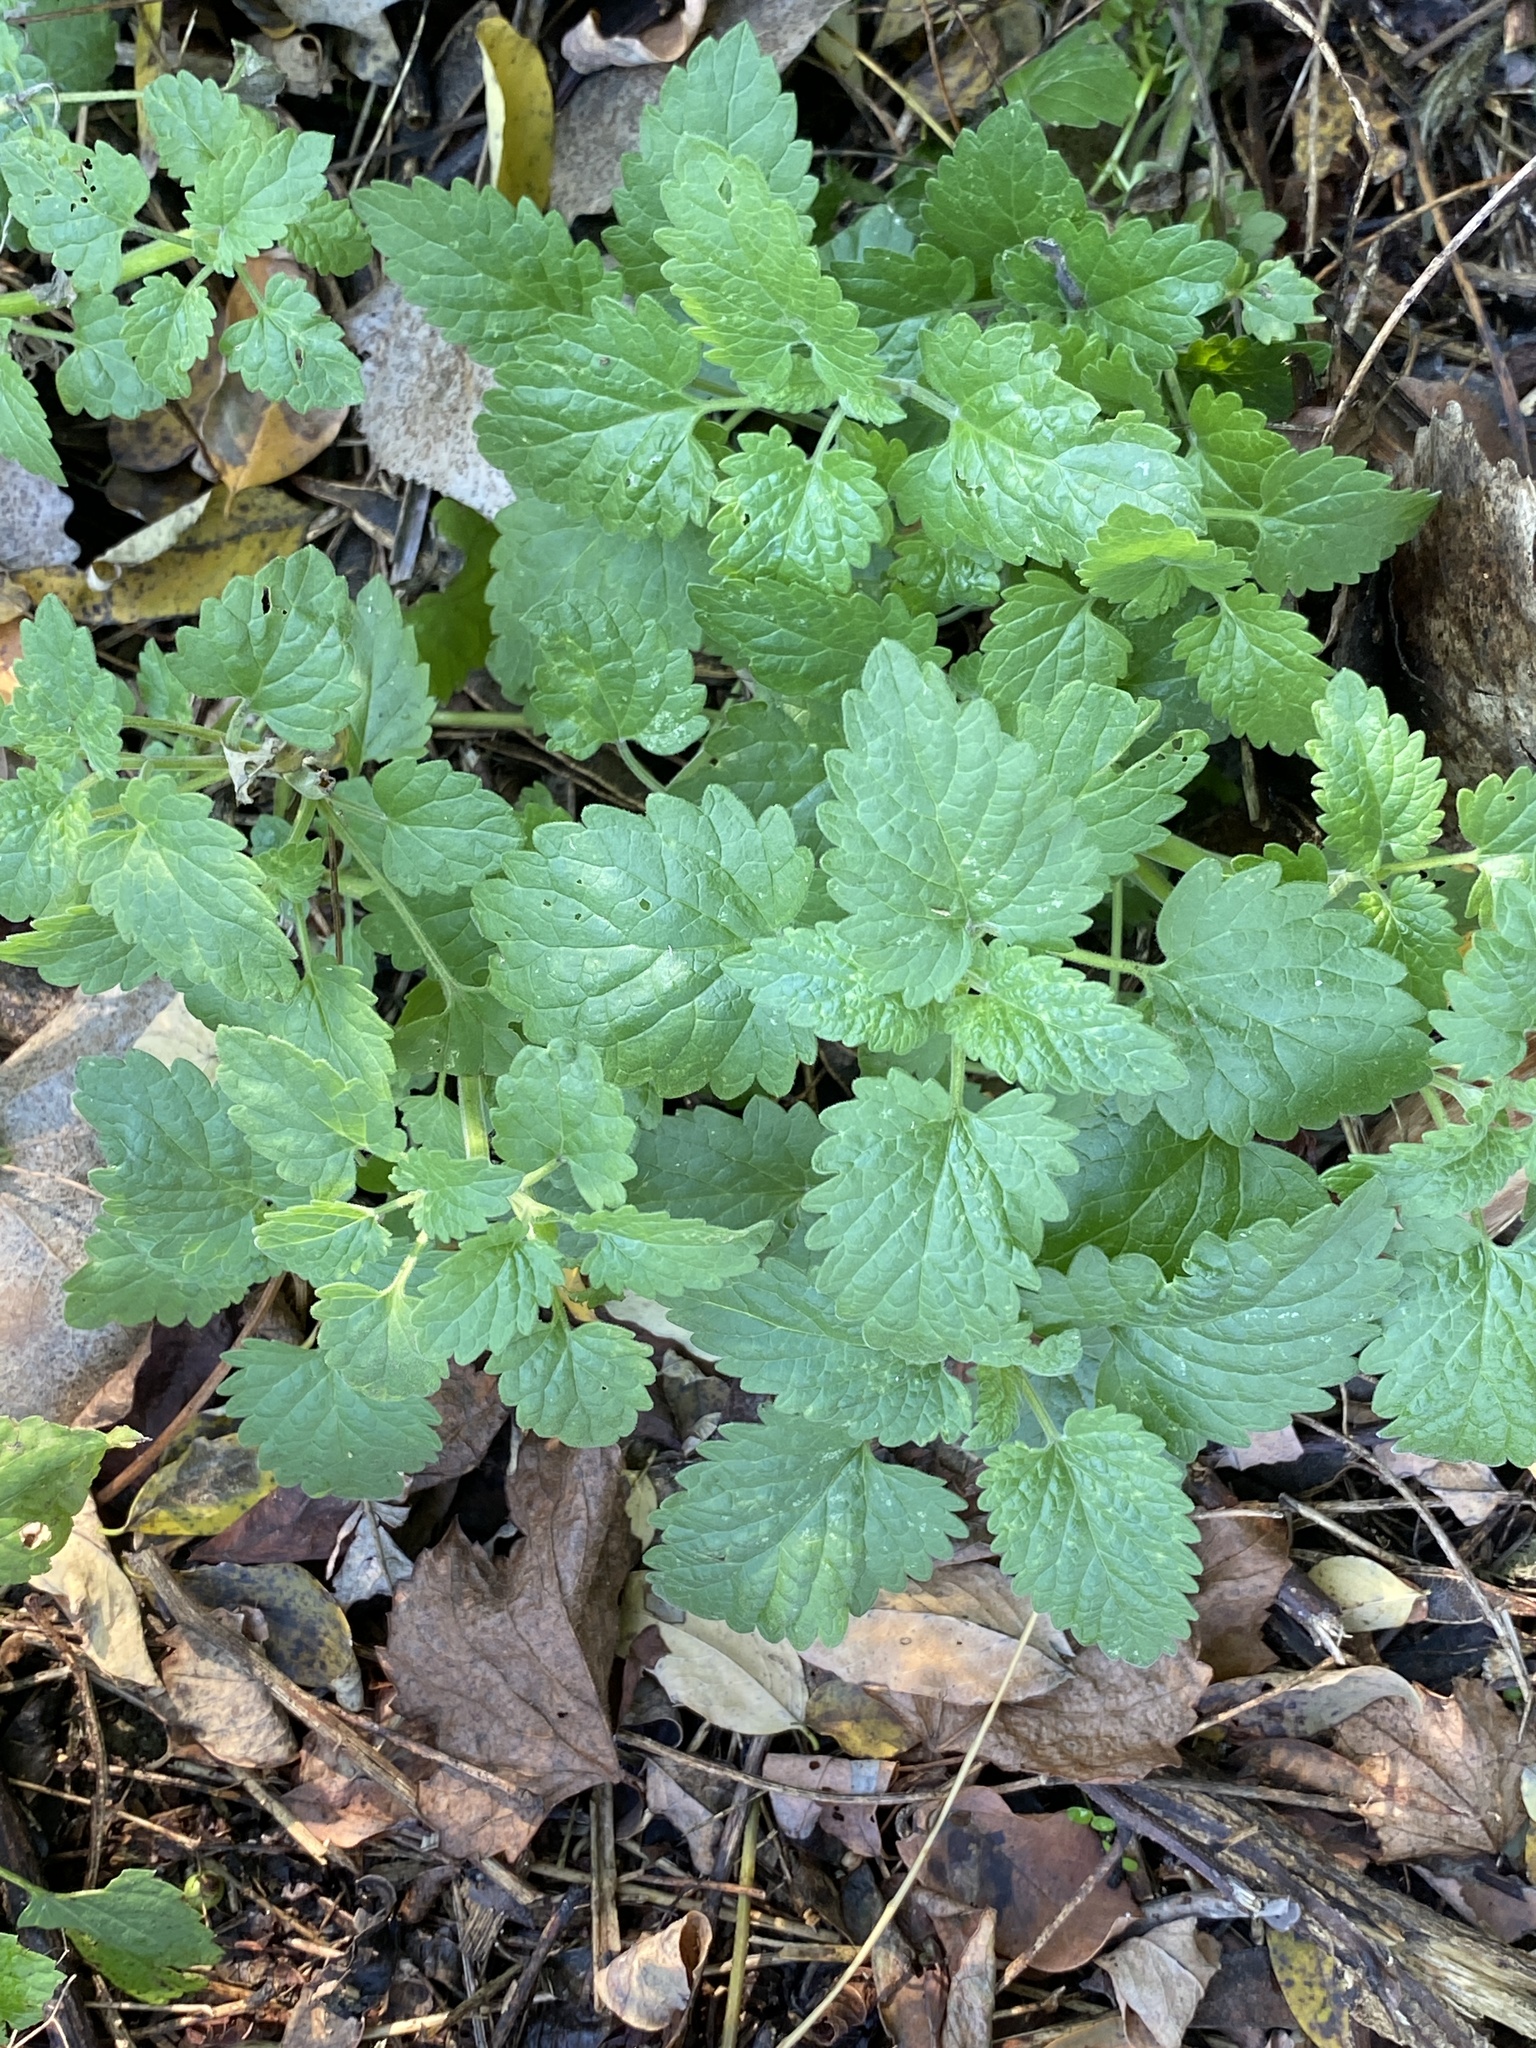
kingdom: Plantae
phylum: Tracheophyta
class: Magnoliopsida
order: Lamiales
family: Lamiaceae
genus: Nepeta
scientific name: Nepeta cataria
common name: Catnip
